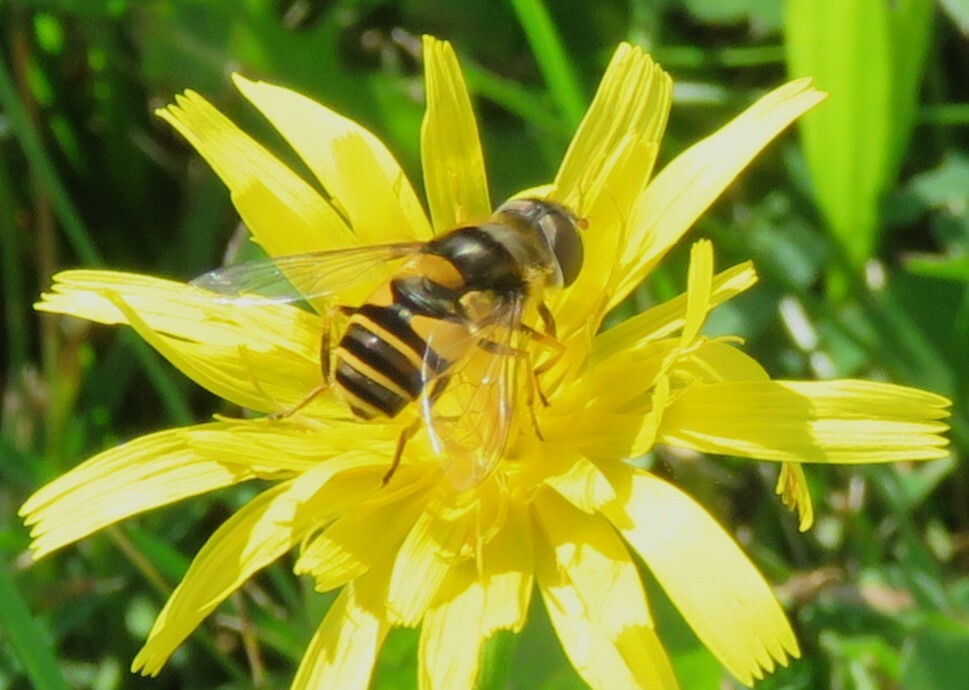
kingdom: Animalia
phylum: Arthropoda
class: Insecta
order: Diptera
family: Syrphidae
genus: Eristalis
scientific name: Eristalis transversa
